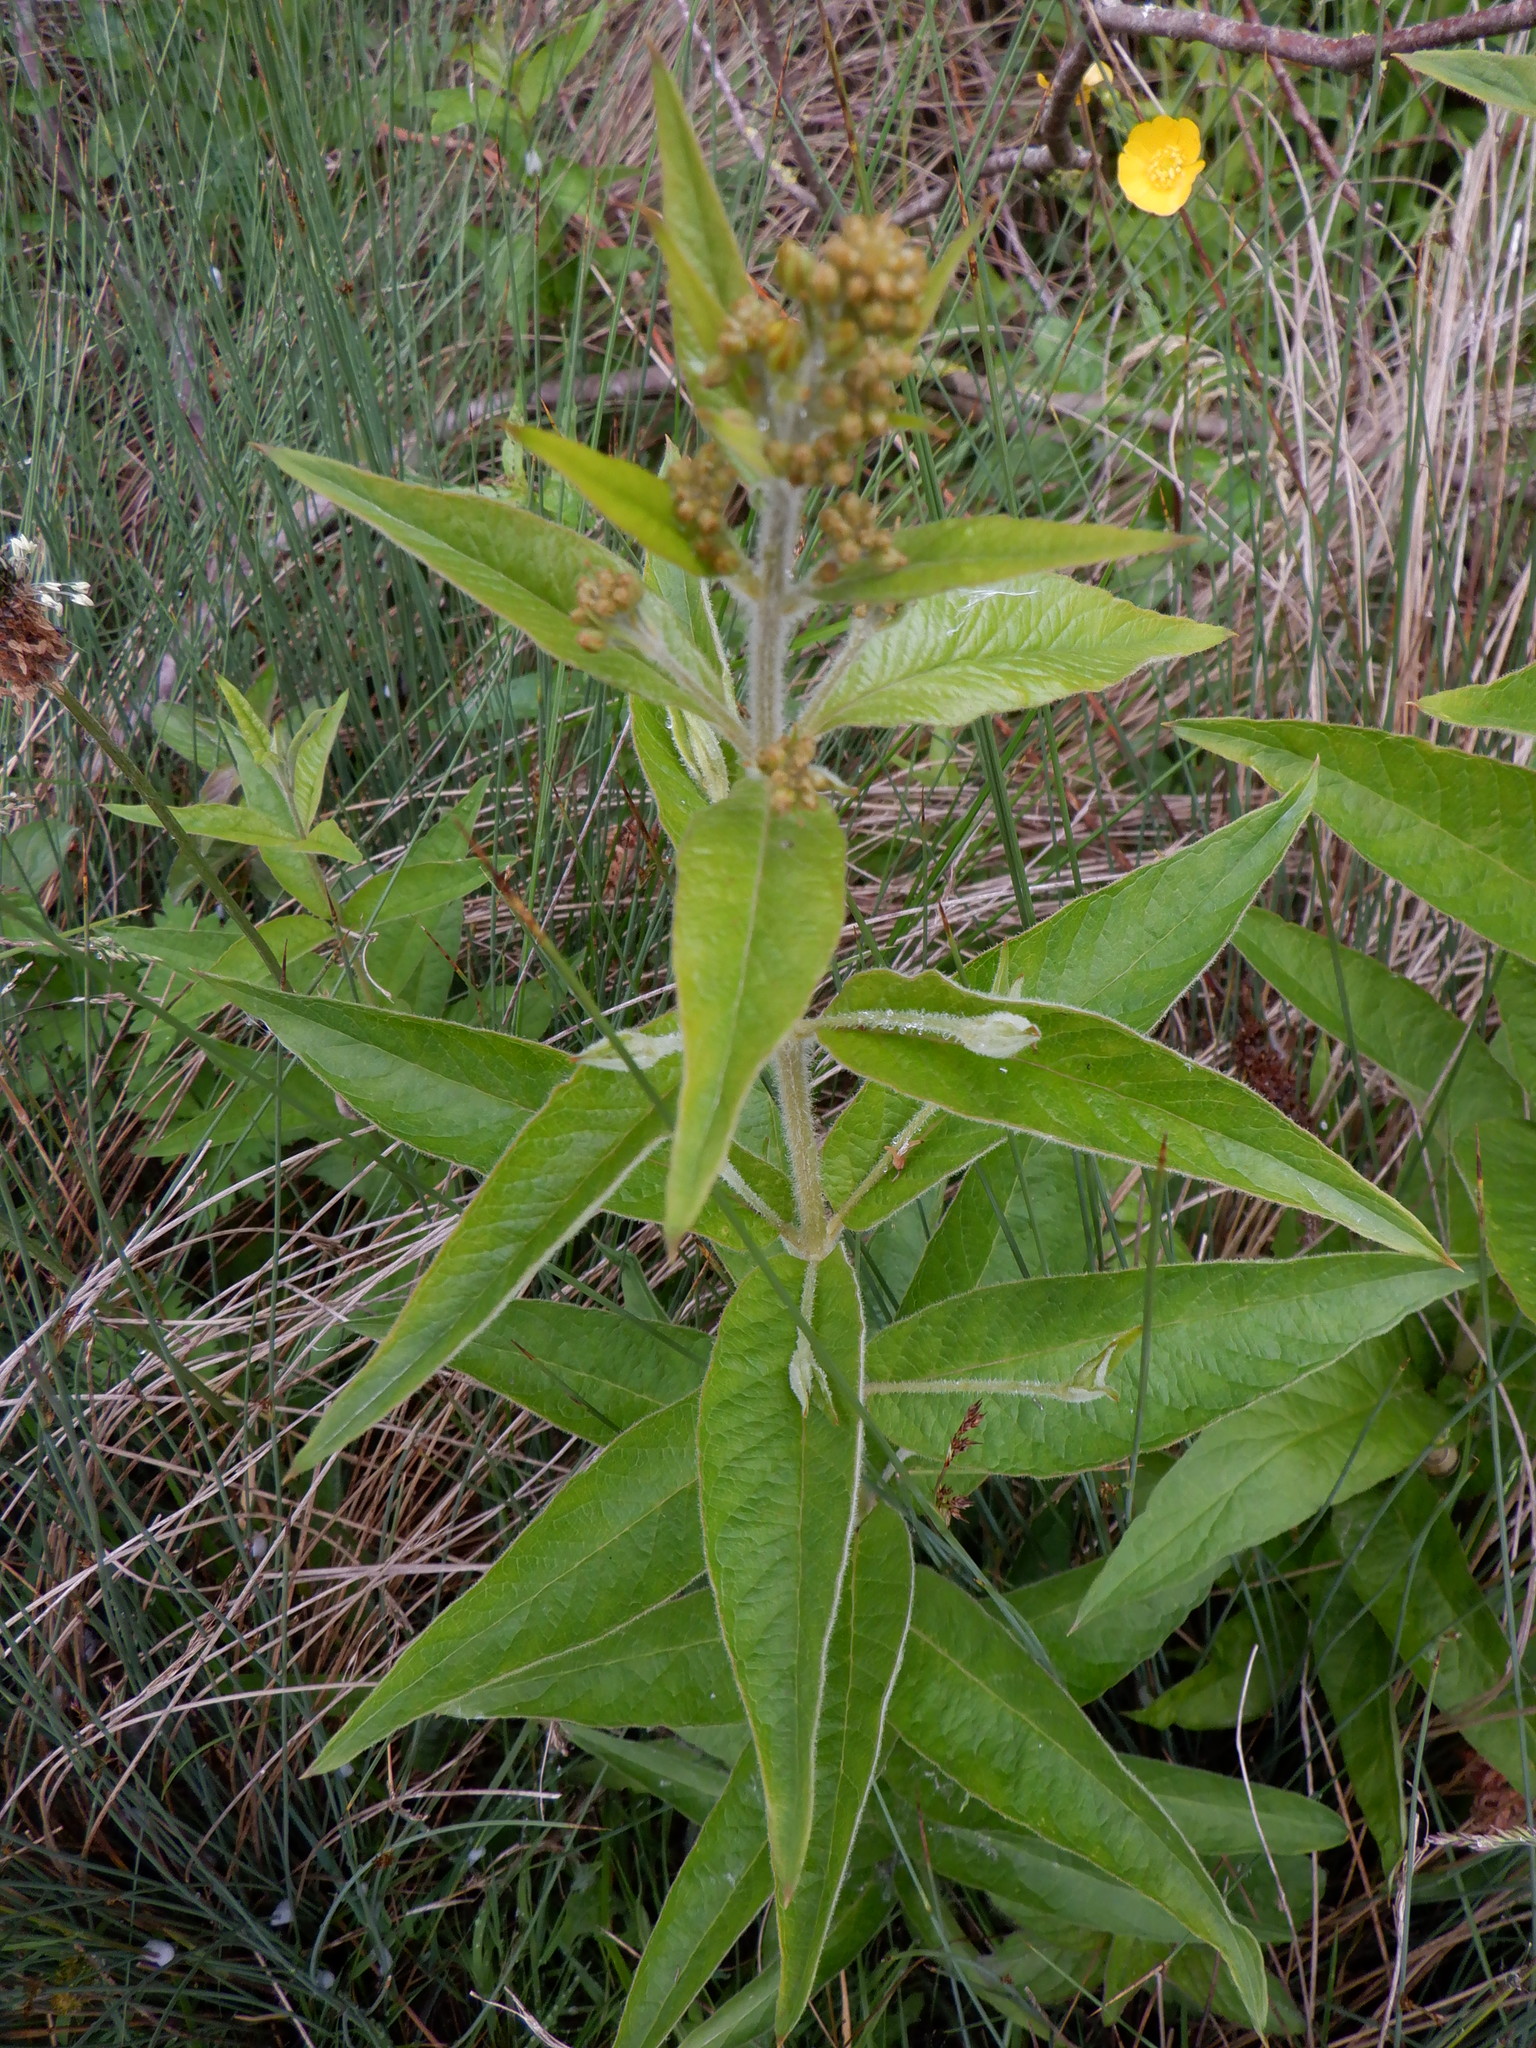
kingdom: Plantae
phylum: Tracheophyta
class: Magnoliopsida
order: Ericales
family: Primulaceae
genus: Lysimachia
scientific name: Lysimachia vulgaris
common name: Yellow loosestrife
